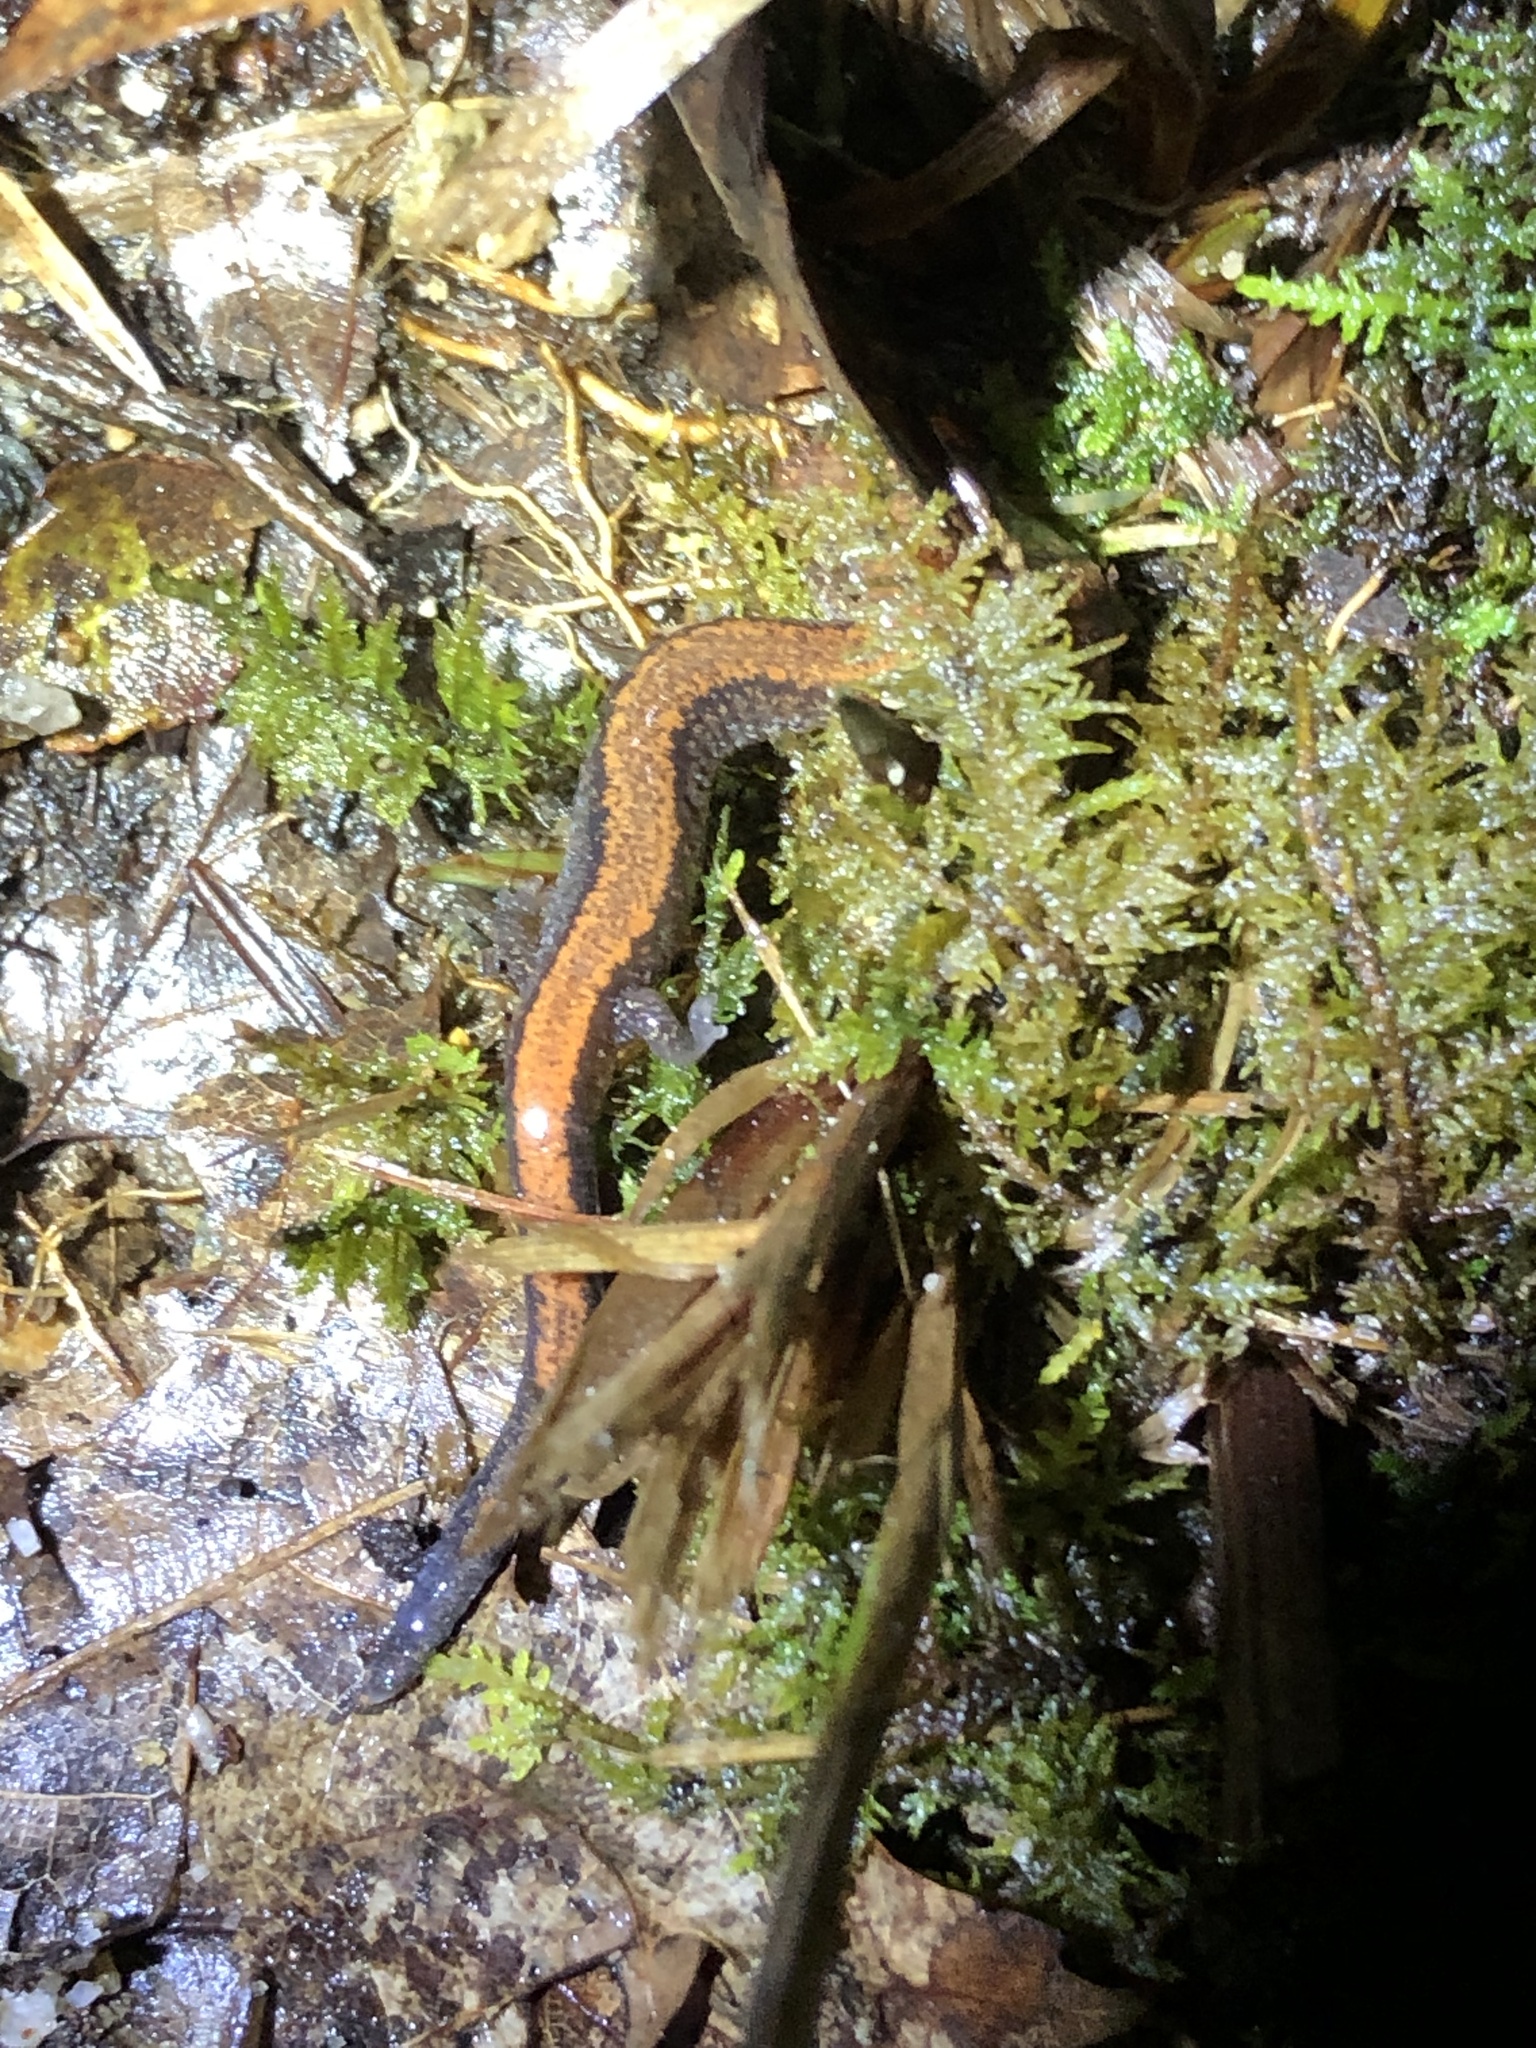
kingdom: Animalia
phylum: Chordata
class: Amphibia
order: Caudata
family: Plethodontidae
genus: Plethodon
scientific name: Plethodon cinereus
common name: Redback salamander
